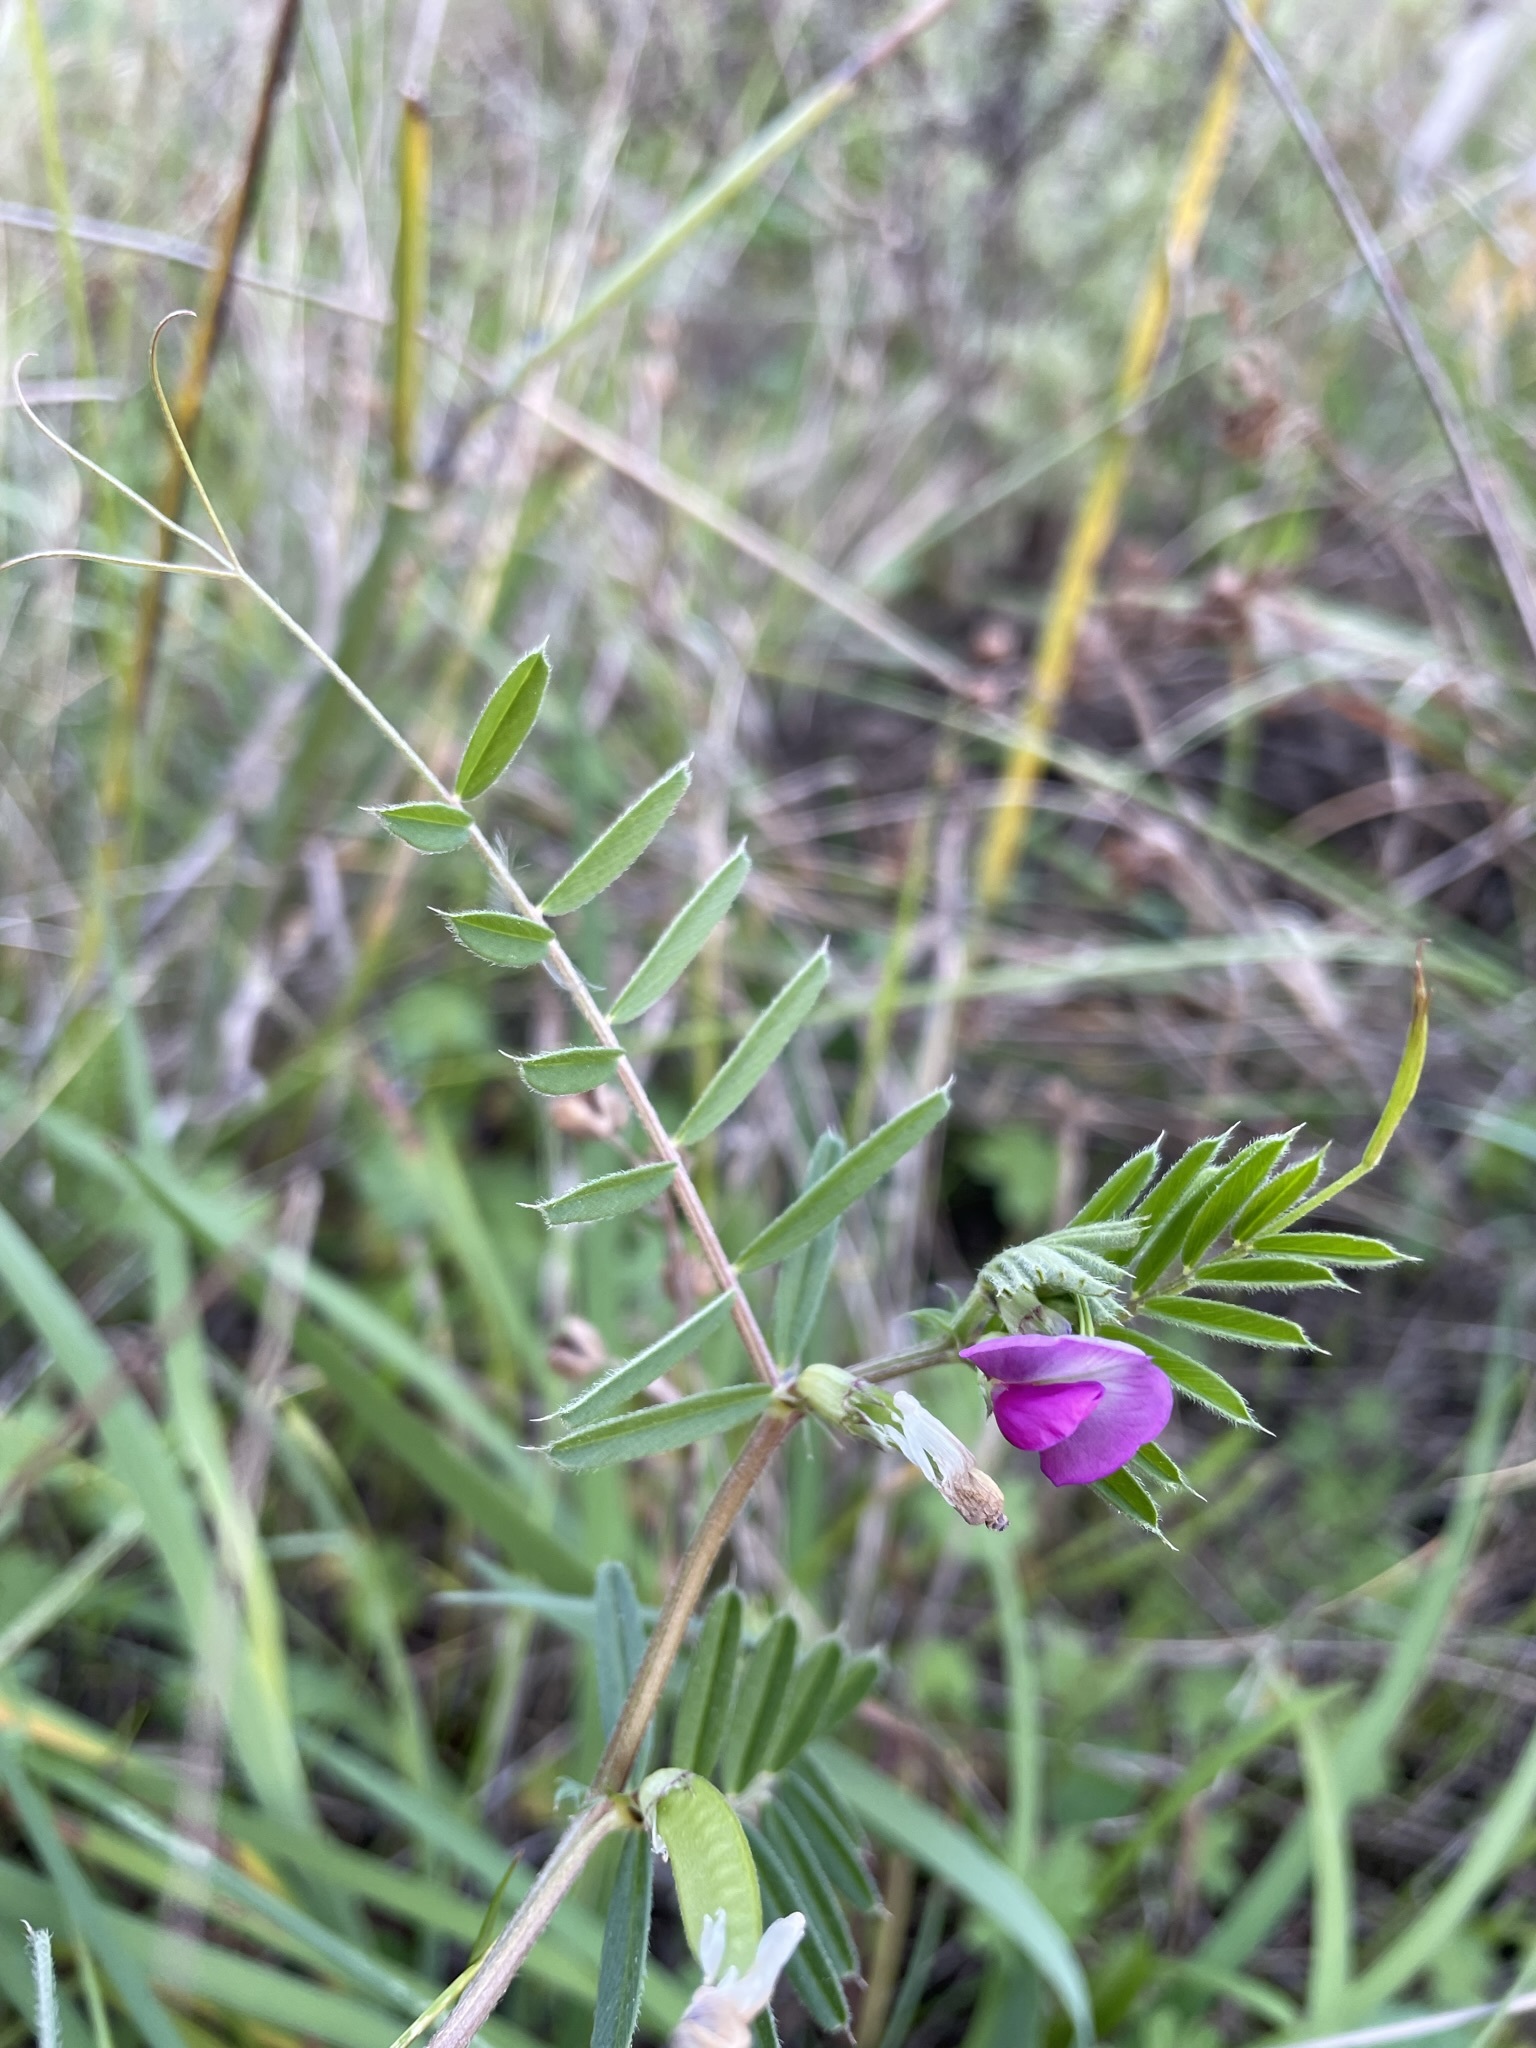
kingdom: Plantae
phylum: Tracheophyta
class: Magnoliopsida
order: Fabales
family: Fabaceae
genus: Vicia
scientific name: Vicia sativa
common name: Garden vetch
